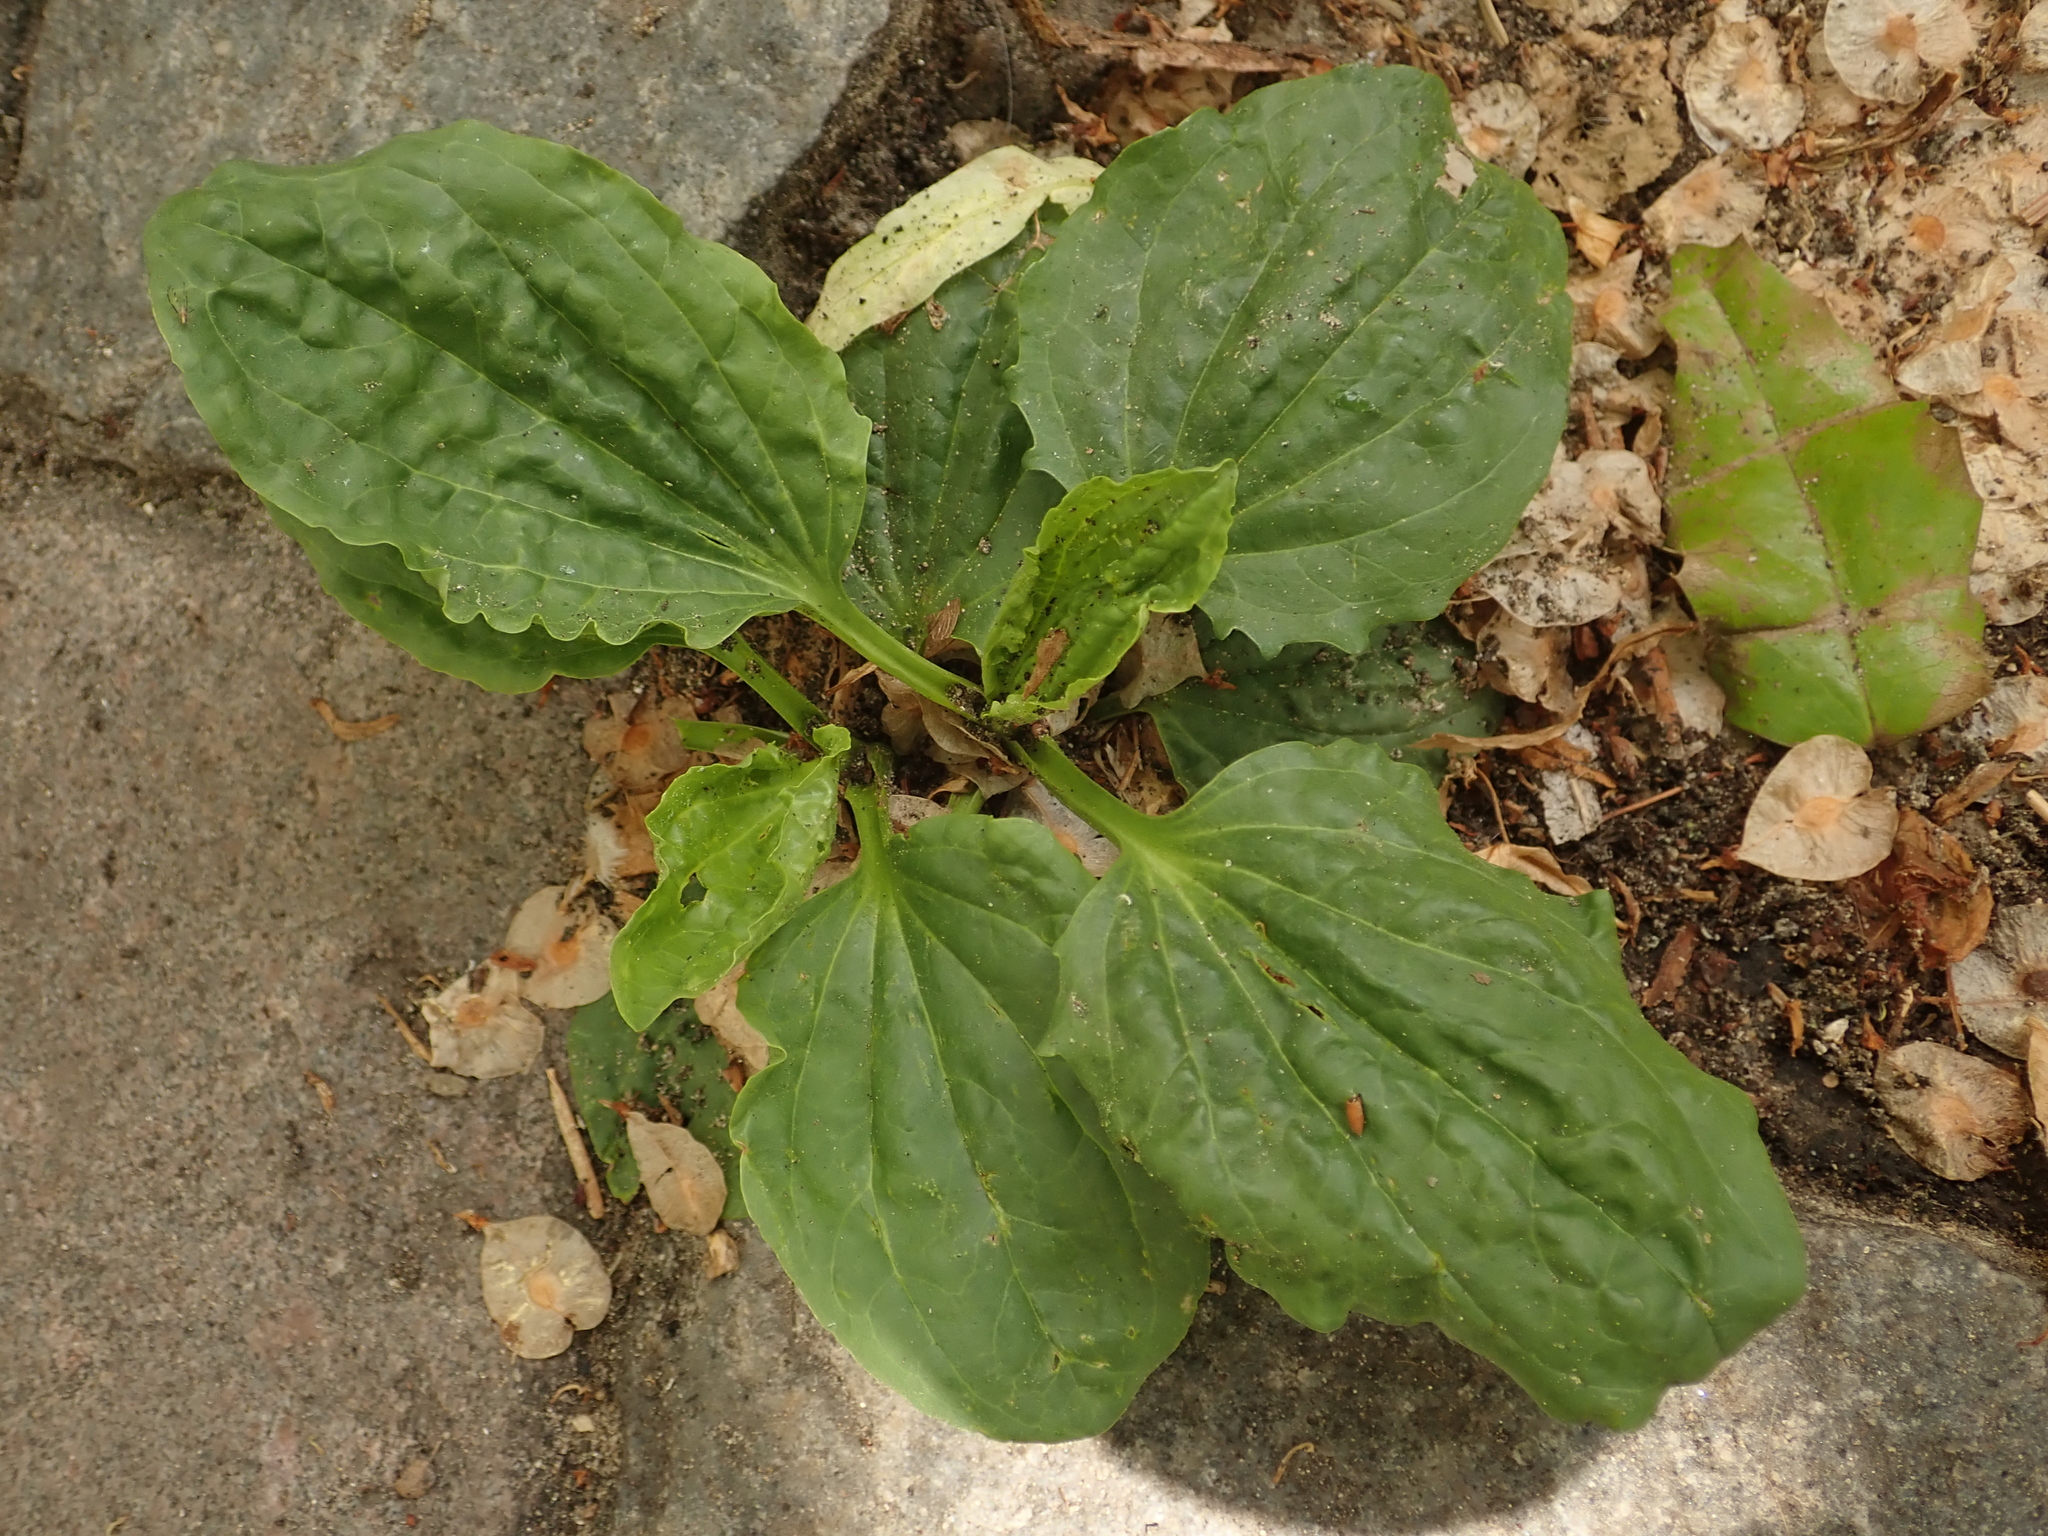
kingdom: Plantae
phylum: Tracheophyta
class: Magnoliopsida
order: Lamiales
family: Plantaginaceae
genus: Plantago
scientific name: Plantago major
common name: Common plantain
